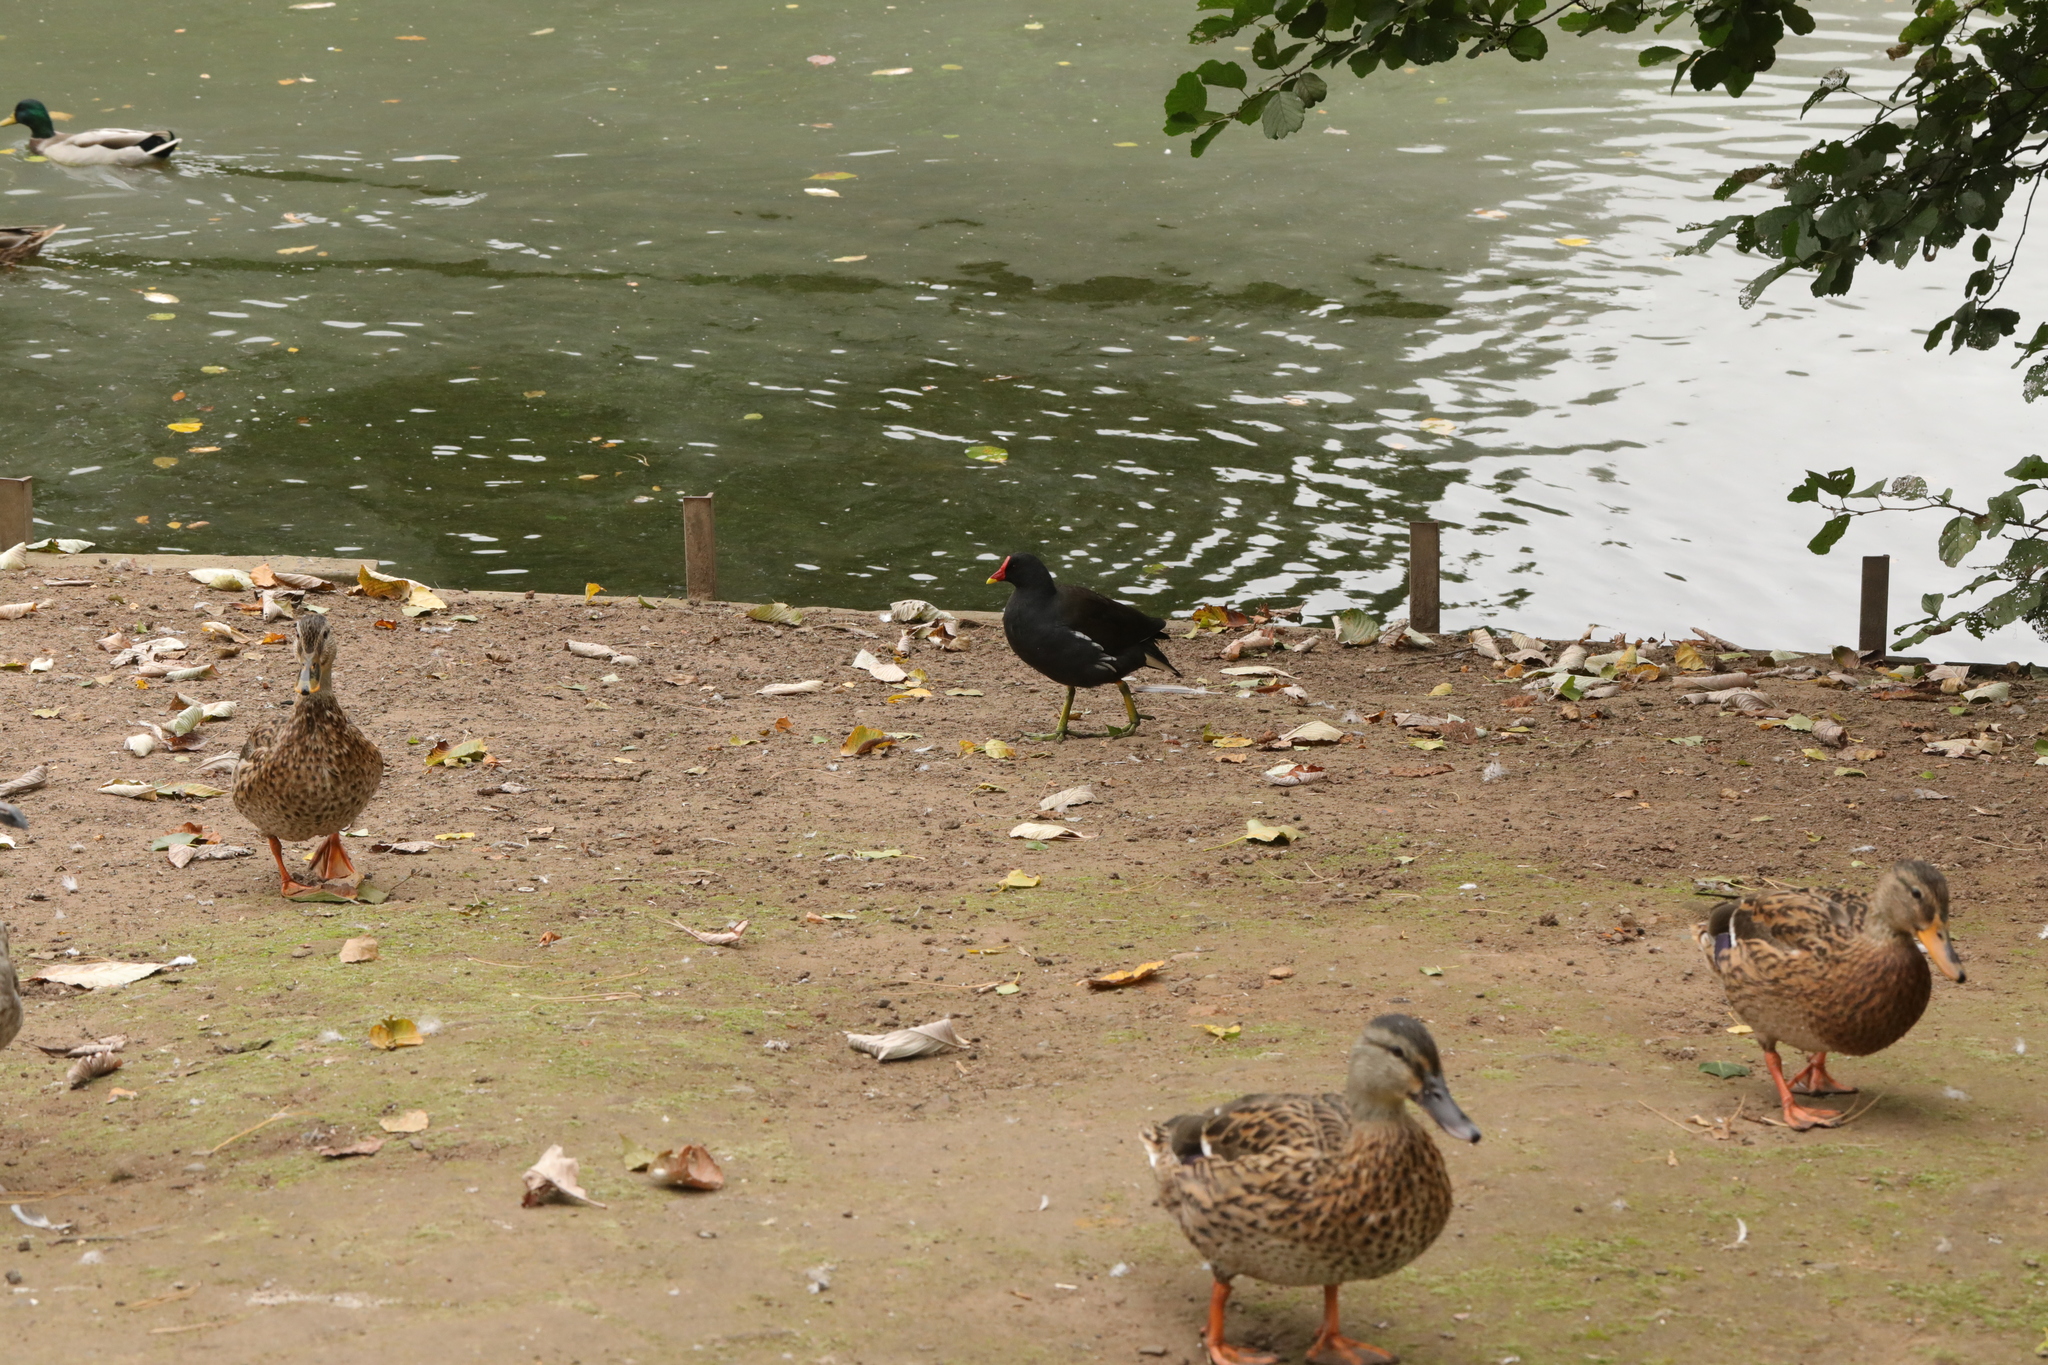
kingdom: Animalia
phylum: Chordata
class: Aves
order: Gruiformes
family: Rallidae
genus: Gallinula
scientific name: Gallinula chloropus
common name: Common moorhen
